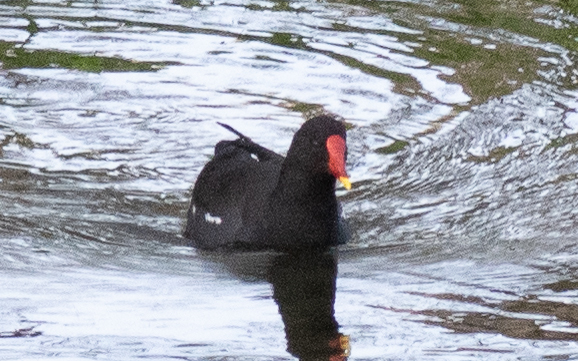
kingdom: Animalia
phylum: Chordata
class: Aves
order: Gruiformes
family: Rallidae
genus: Gallinula
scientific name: Gallinula chloropus
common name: Common moorhen
